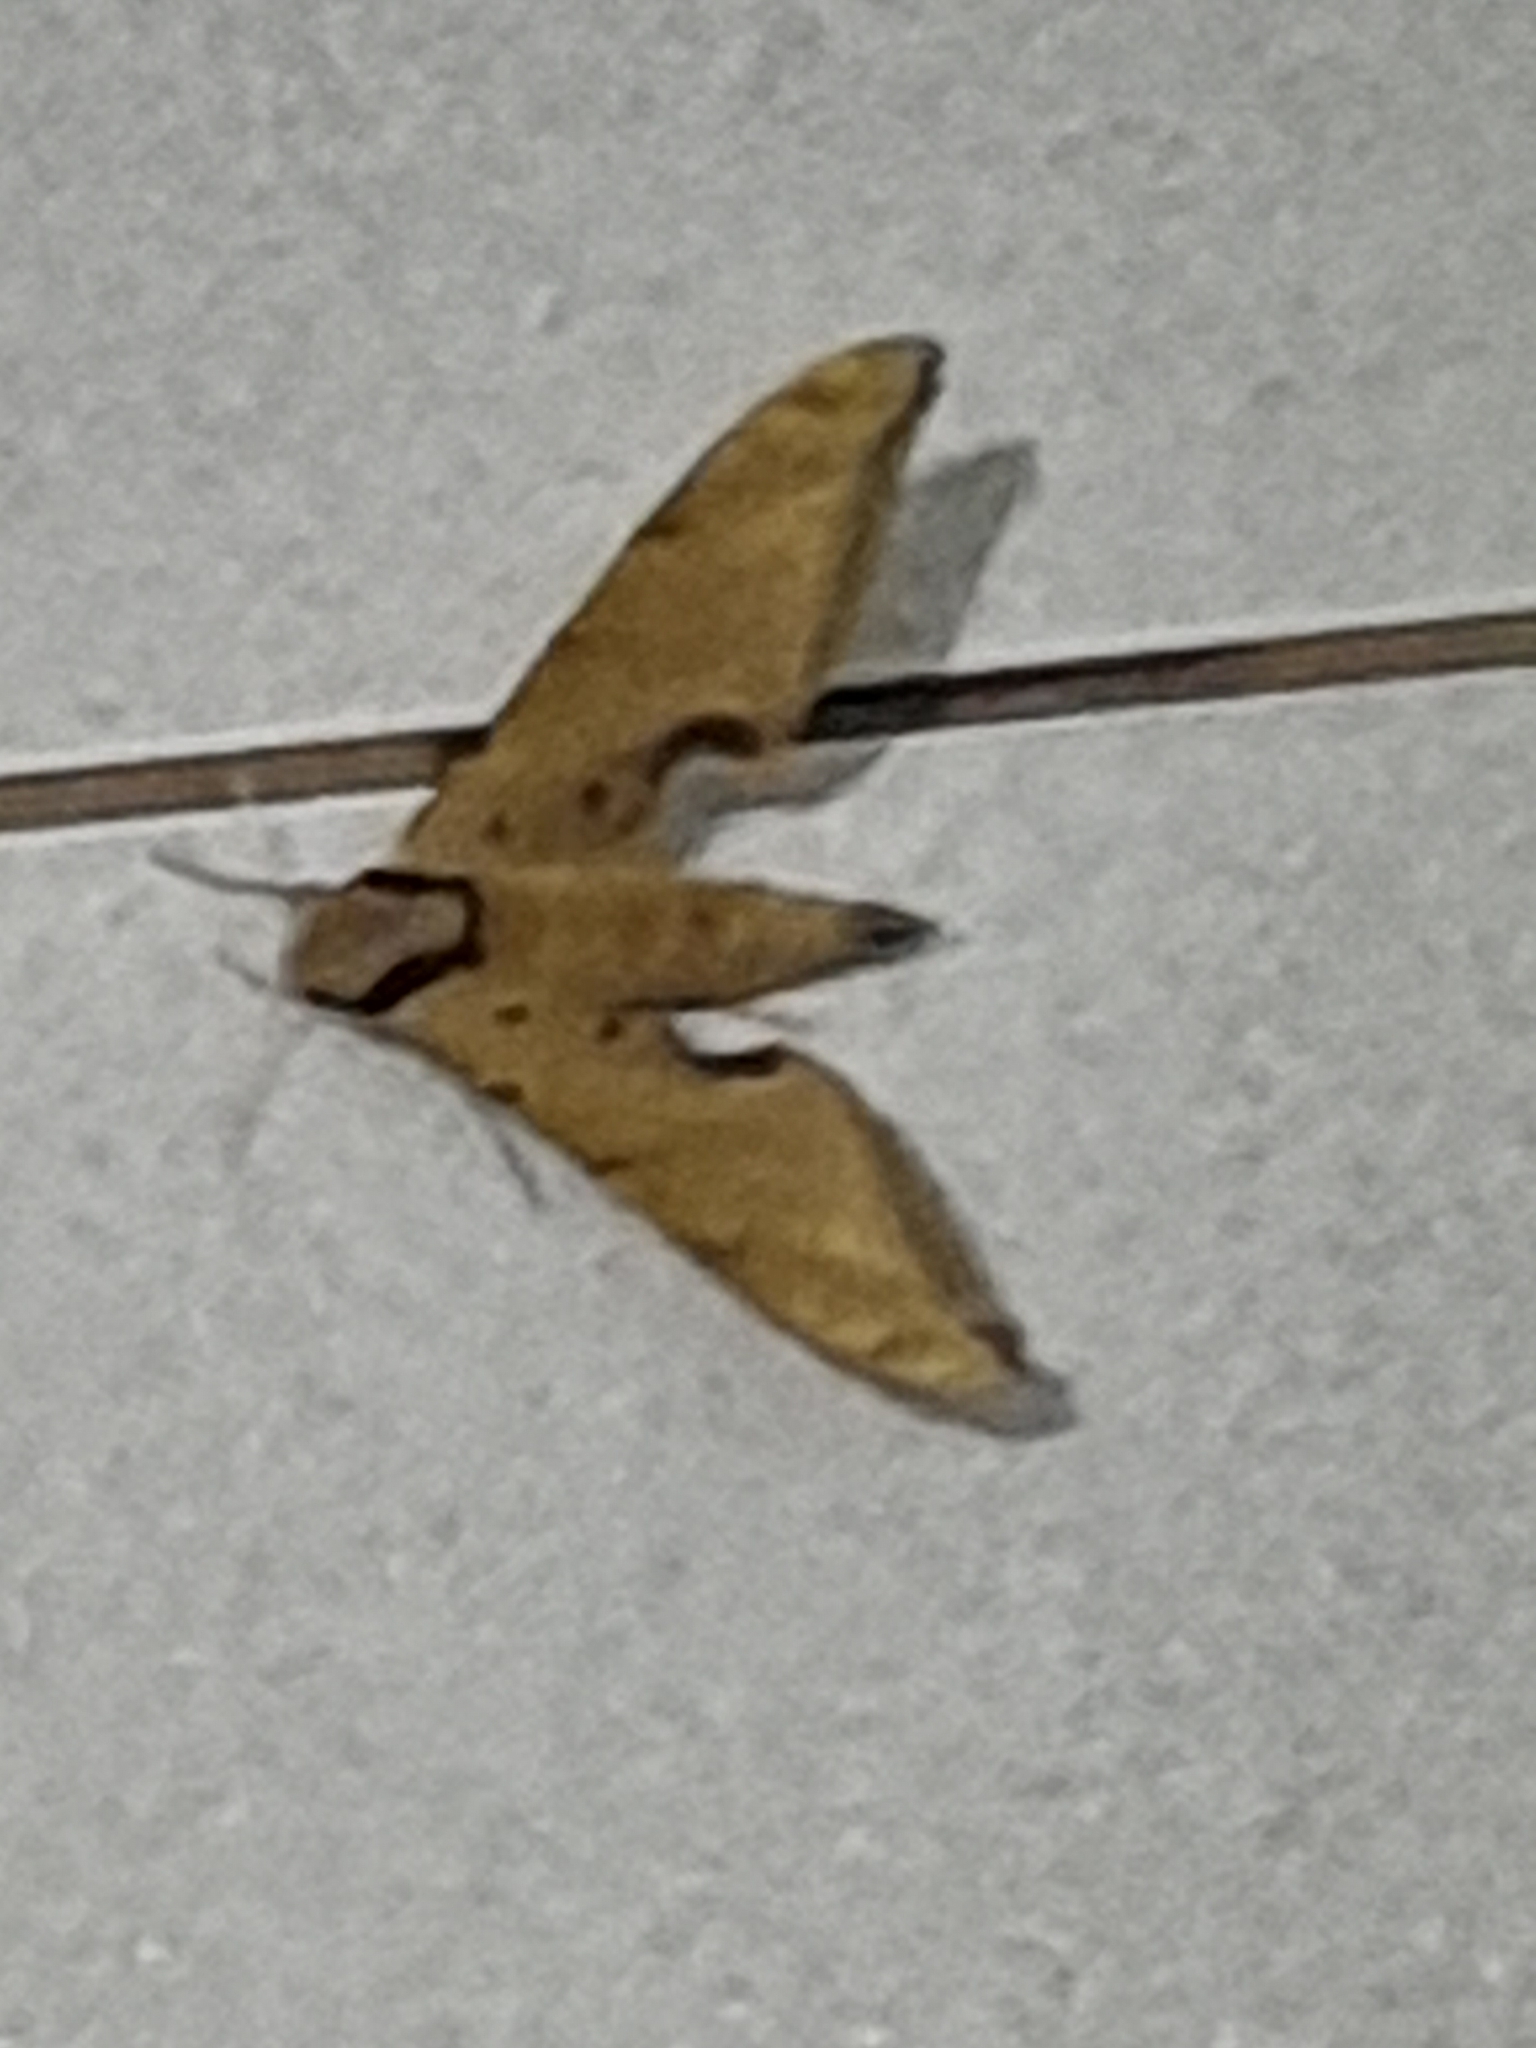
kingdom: Animalia
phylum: Arthropoda
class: Insecta
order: Lepidoptera
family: Sphingidae
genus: Protambulyx
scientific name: Protambulyx strigilis
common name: Streaked sphinx
